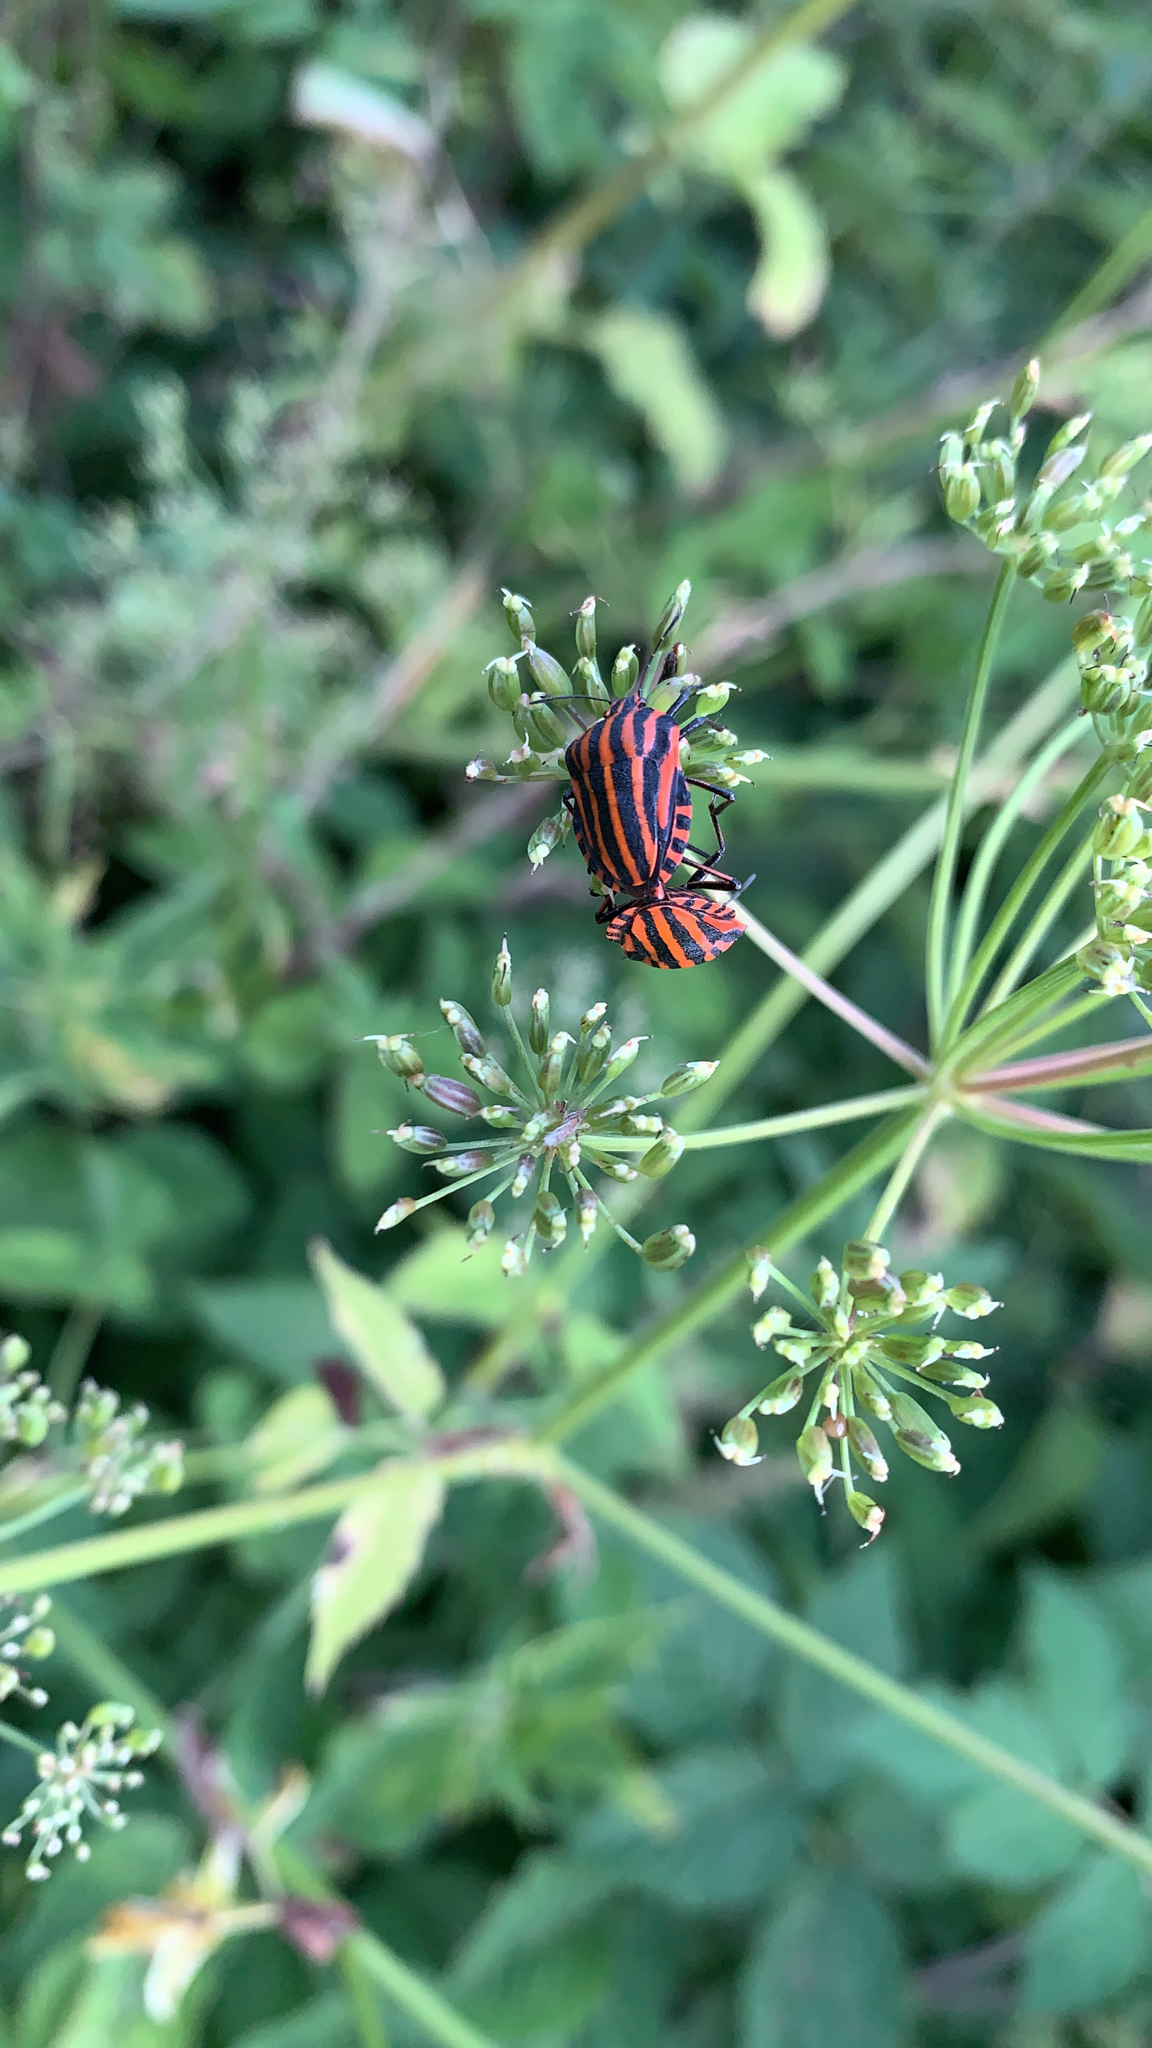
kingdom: Animalia
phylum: Arthropoda
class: Insecta
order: Hemiptera
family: Pentatomidae
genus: Graphosoma
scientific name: Graphosoma italicum
